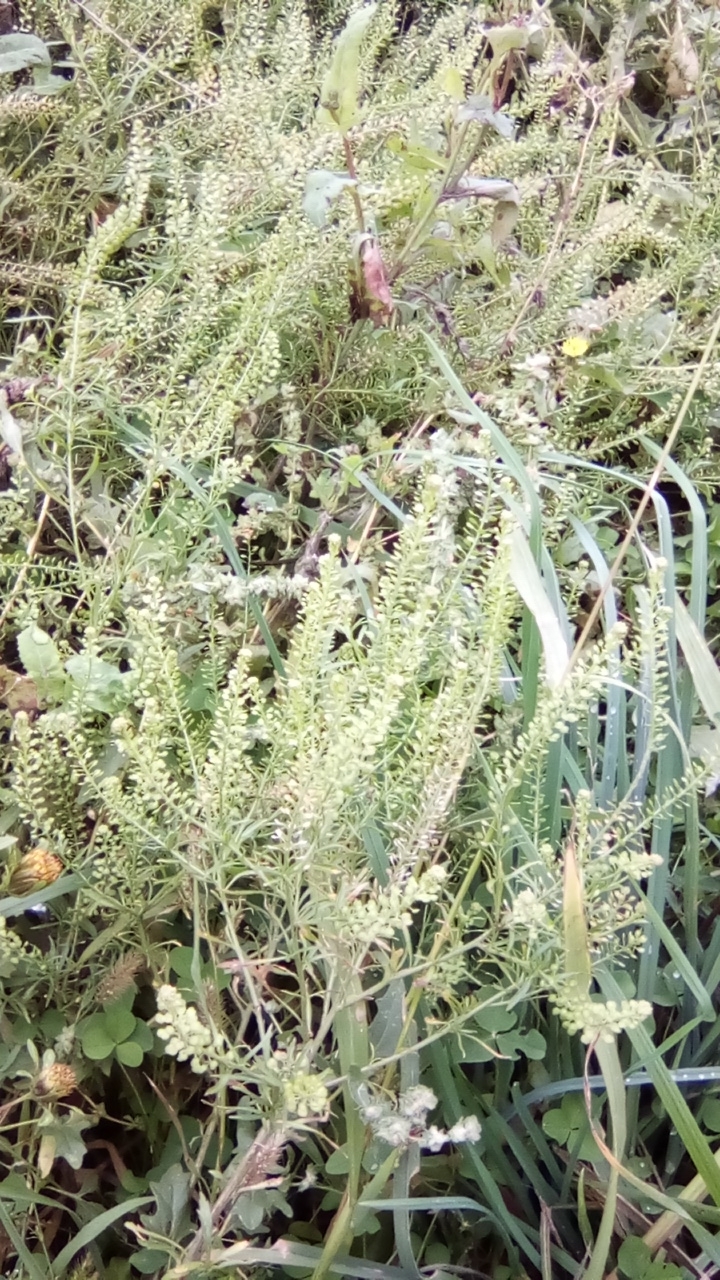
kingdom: Plantae
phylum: Tracheophyta
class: Magnoliopsida
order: Brassicales
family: Brassicaceae
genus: Lepidium
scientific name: Lepidium densiflorum
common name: Miner's pepperwort
